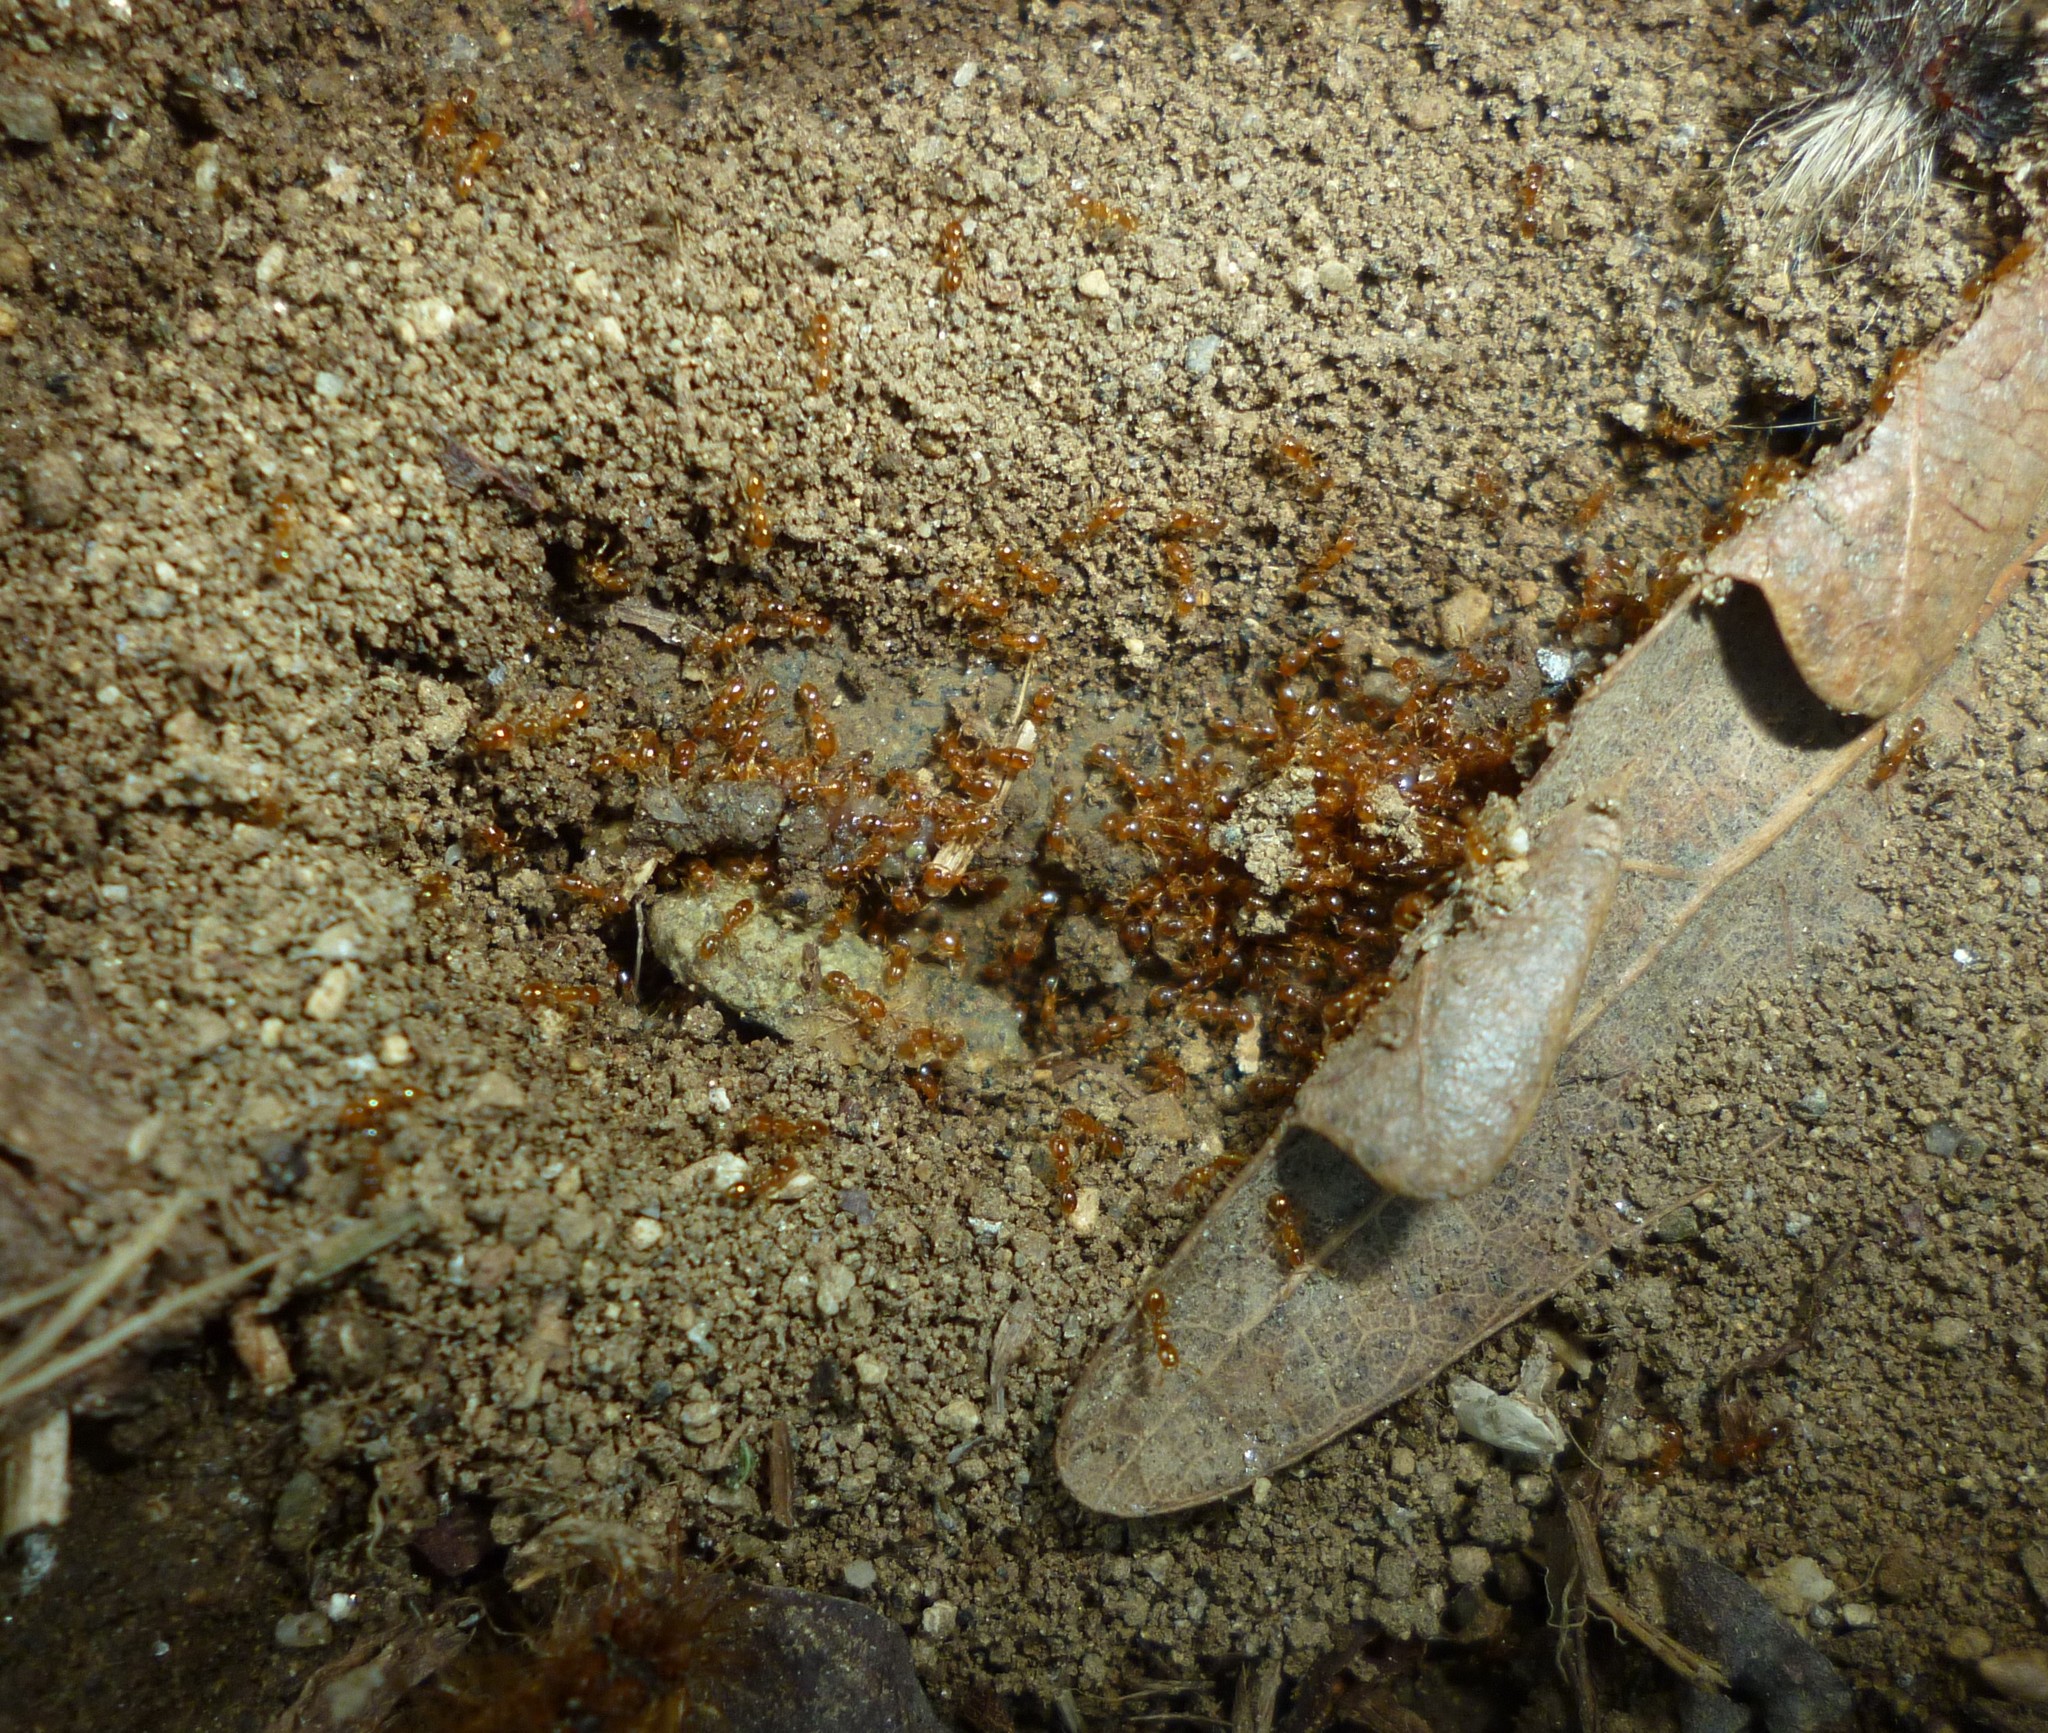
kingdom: Animalia
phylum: Arthropoda
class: Insecta
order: Hymenoptera
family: Formicidae
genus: Solenopsis
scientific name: Solenopsis molesta
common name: Thief ant
